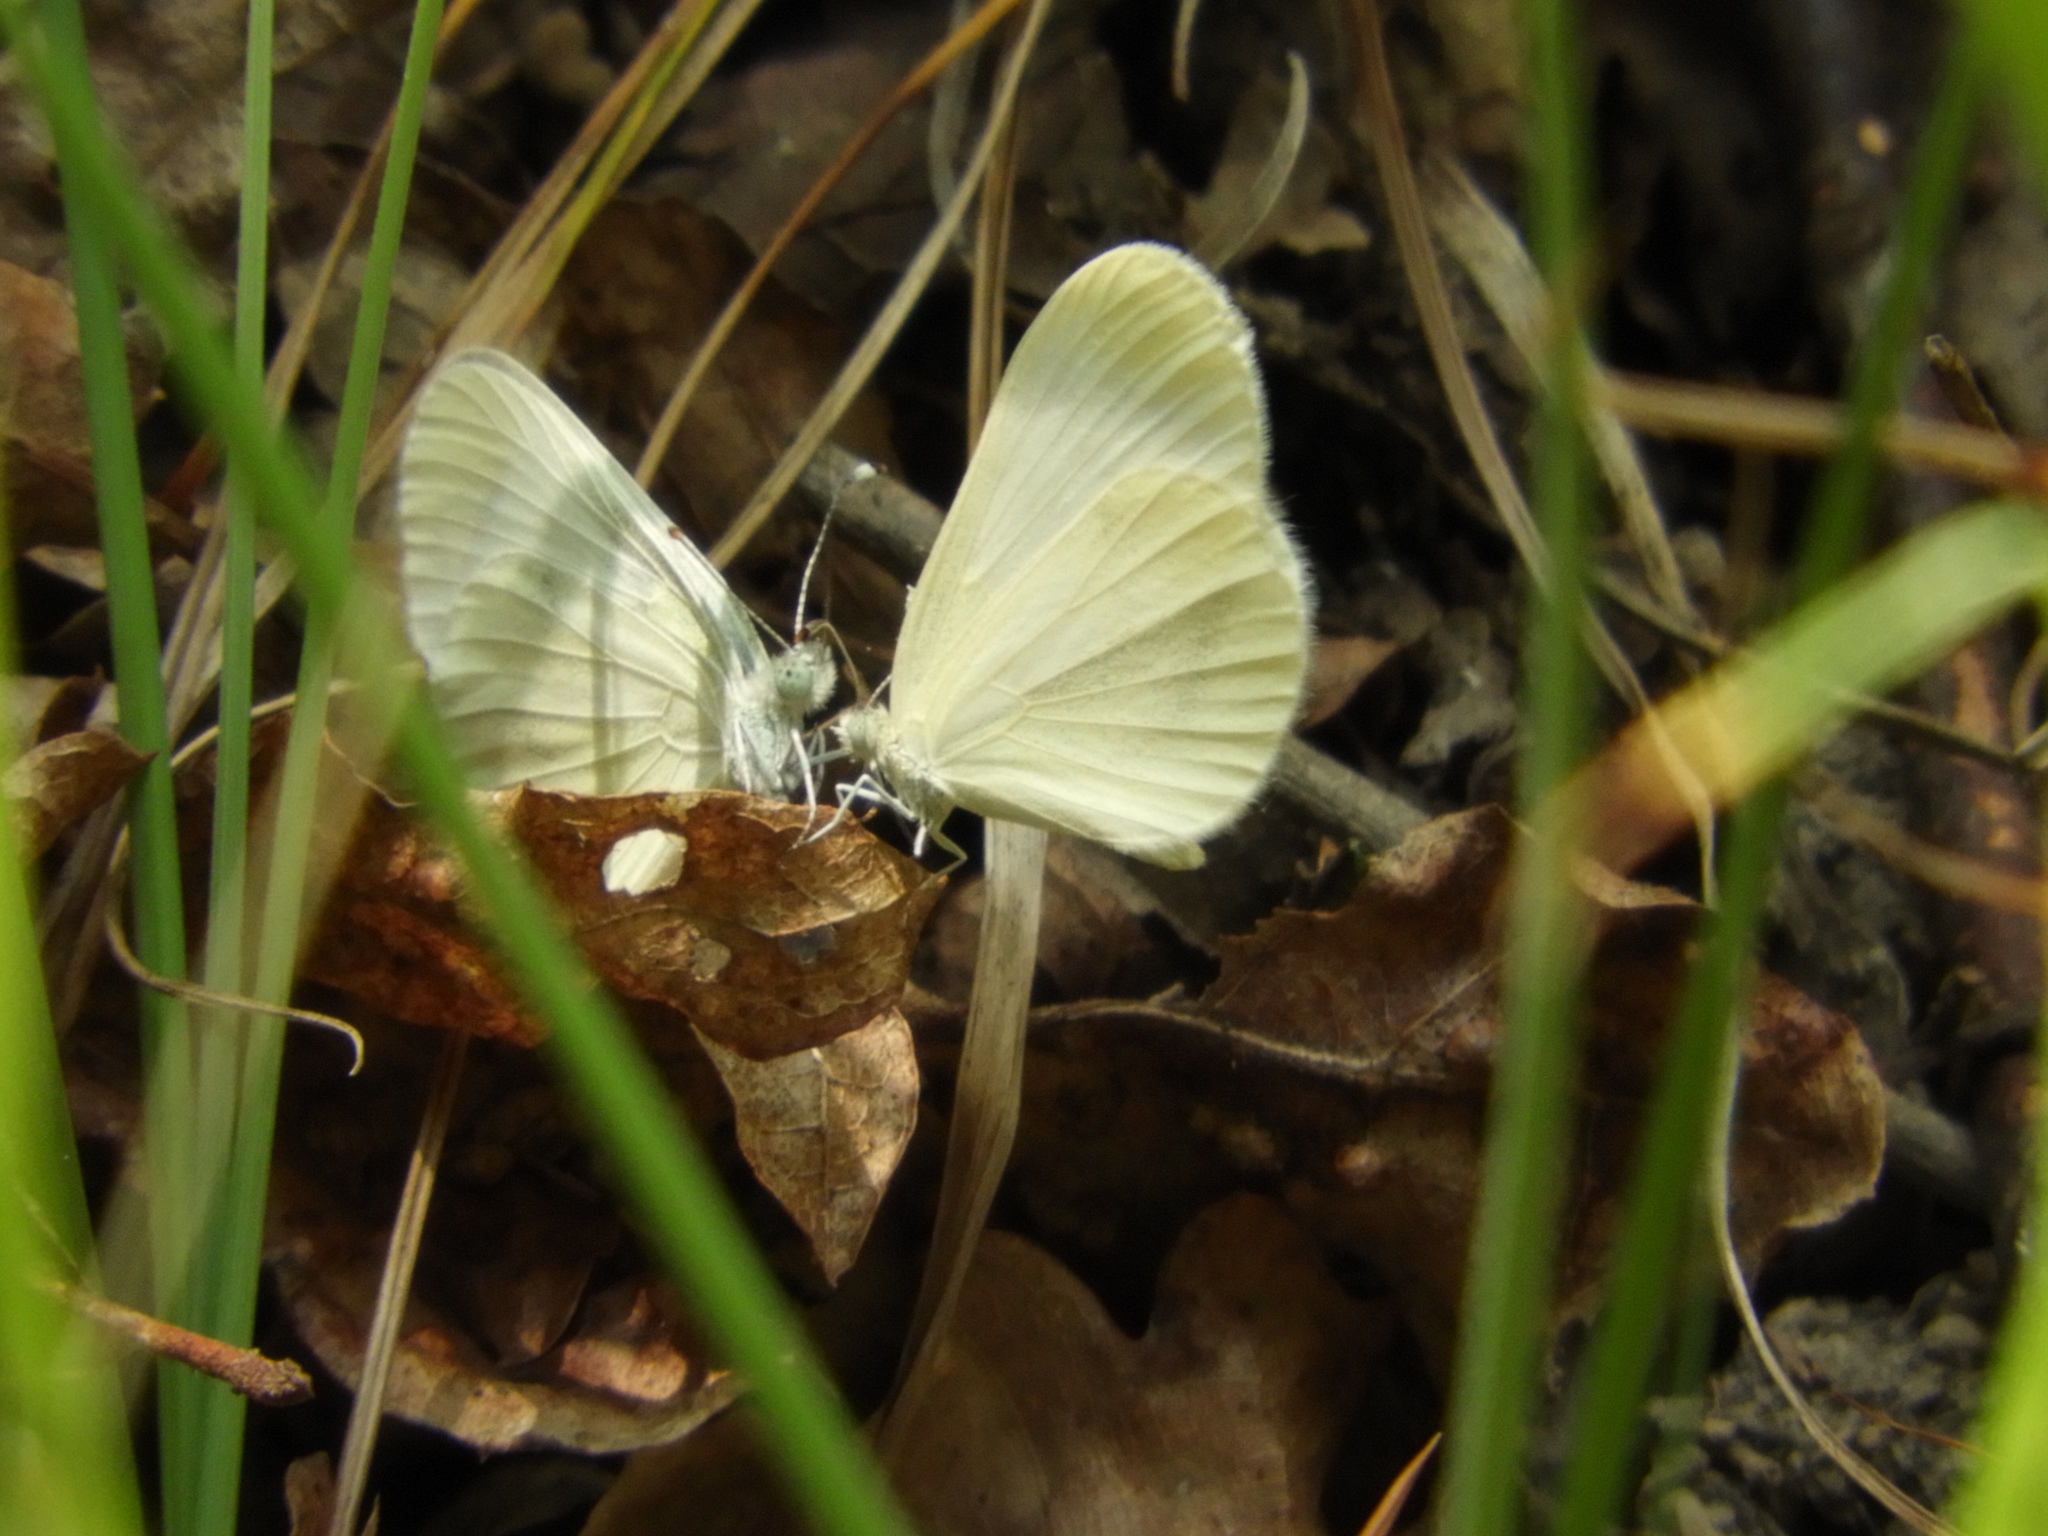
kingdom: Animalia
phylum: Arthropoda
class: Insecta
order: Lepidoptera
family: Pieridae
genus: Leptidea
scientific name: Leptidea sinapis
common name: Wood white
